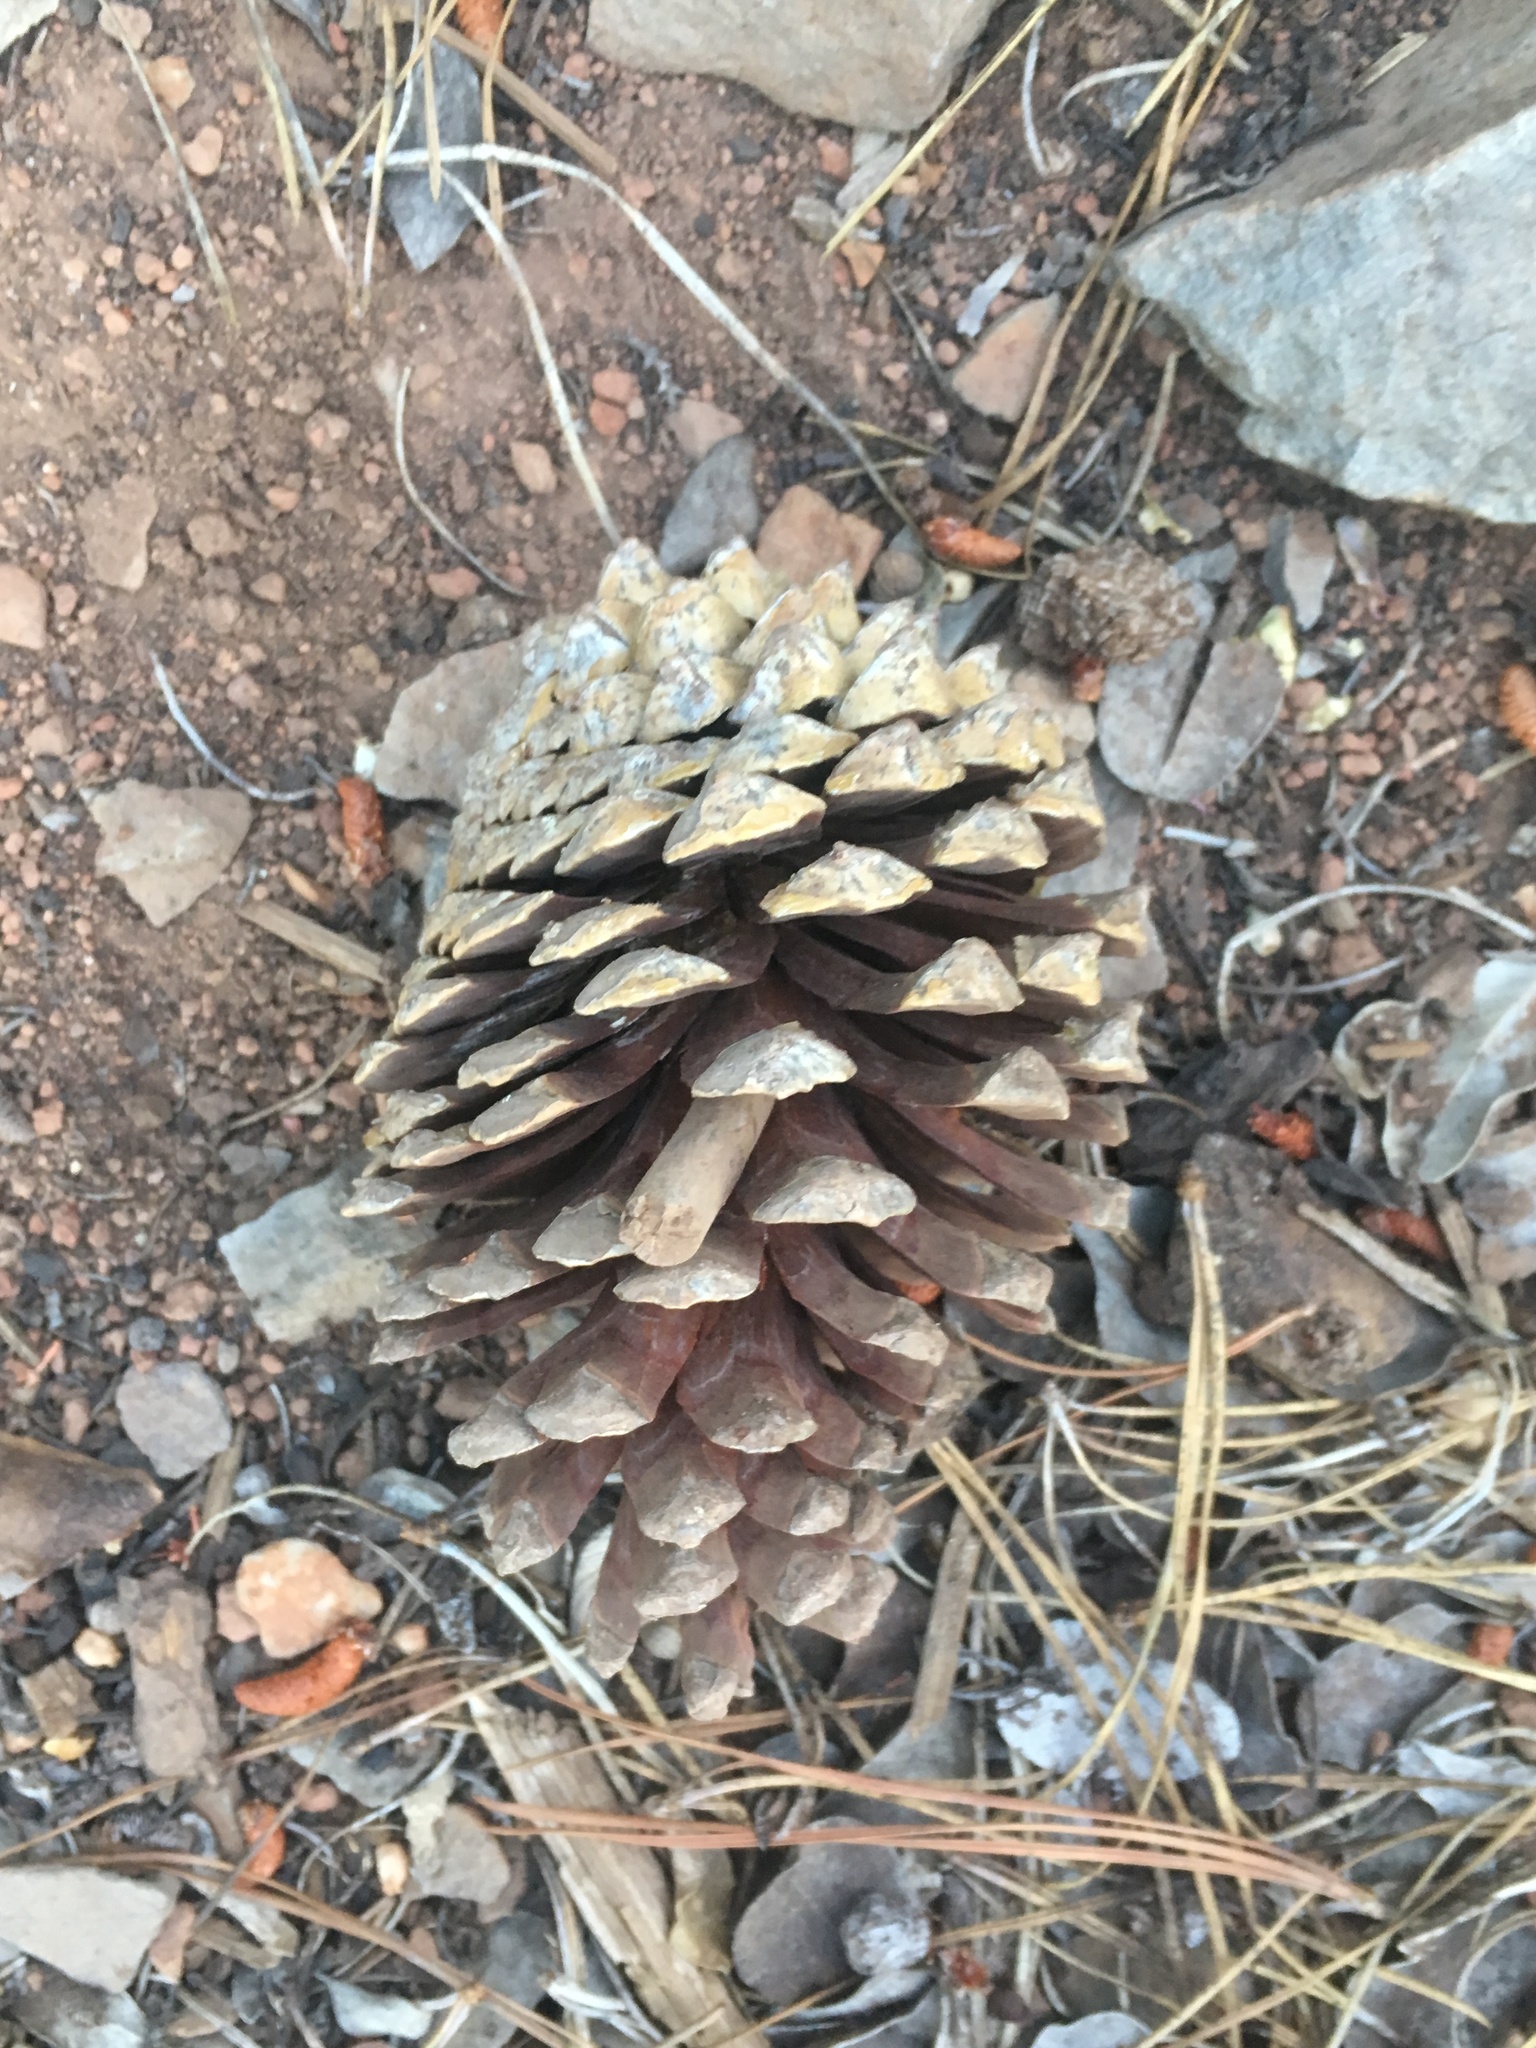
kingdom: Plantae
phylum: Tracheophyta
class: Pinopsida
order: Pinales
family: Pinaceae
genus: Pinus
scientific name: Pinus attenuata
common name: Knobcone pine
